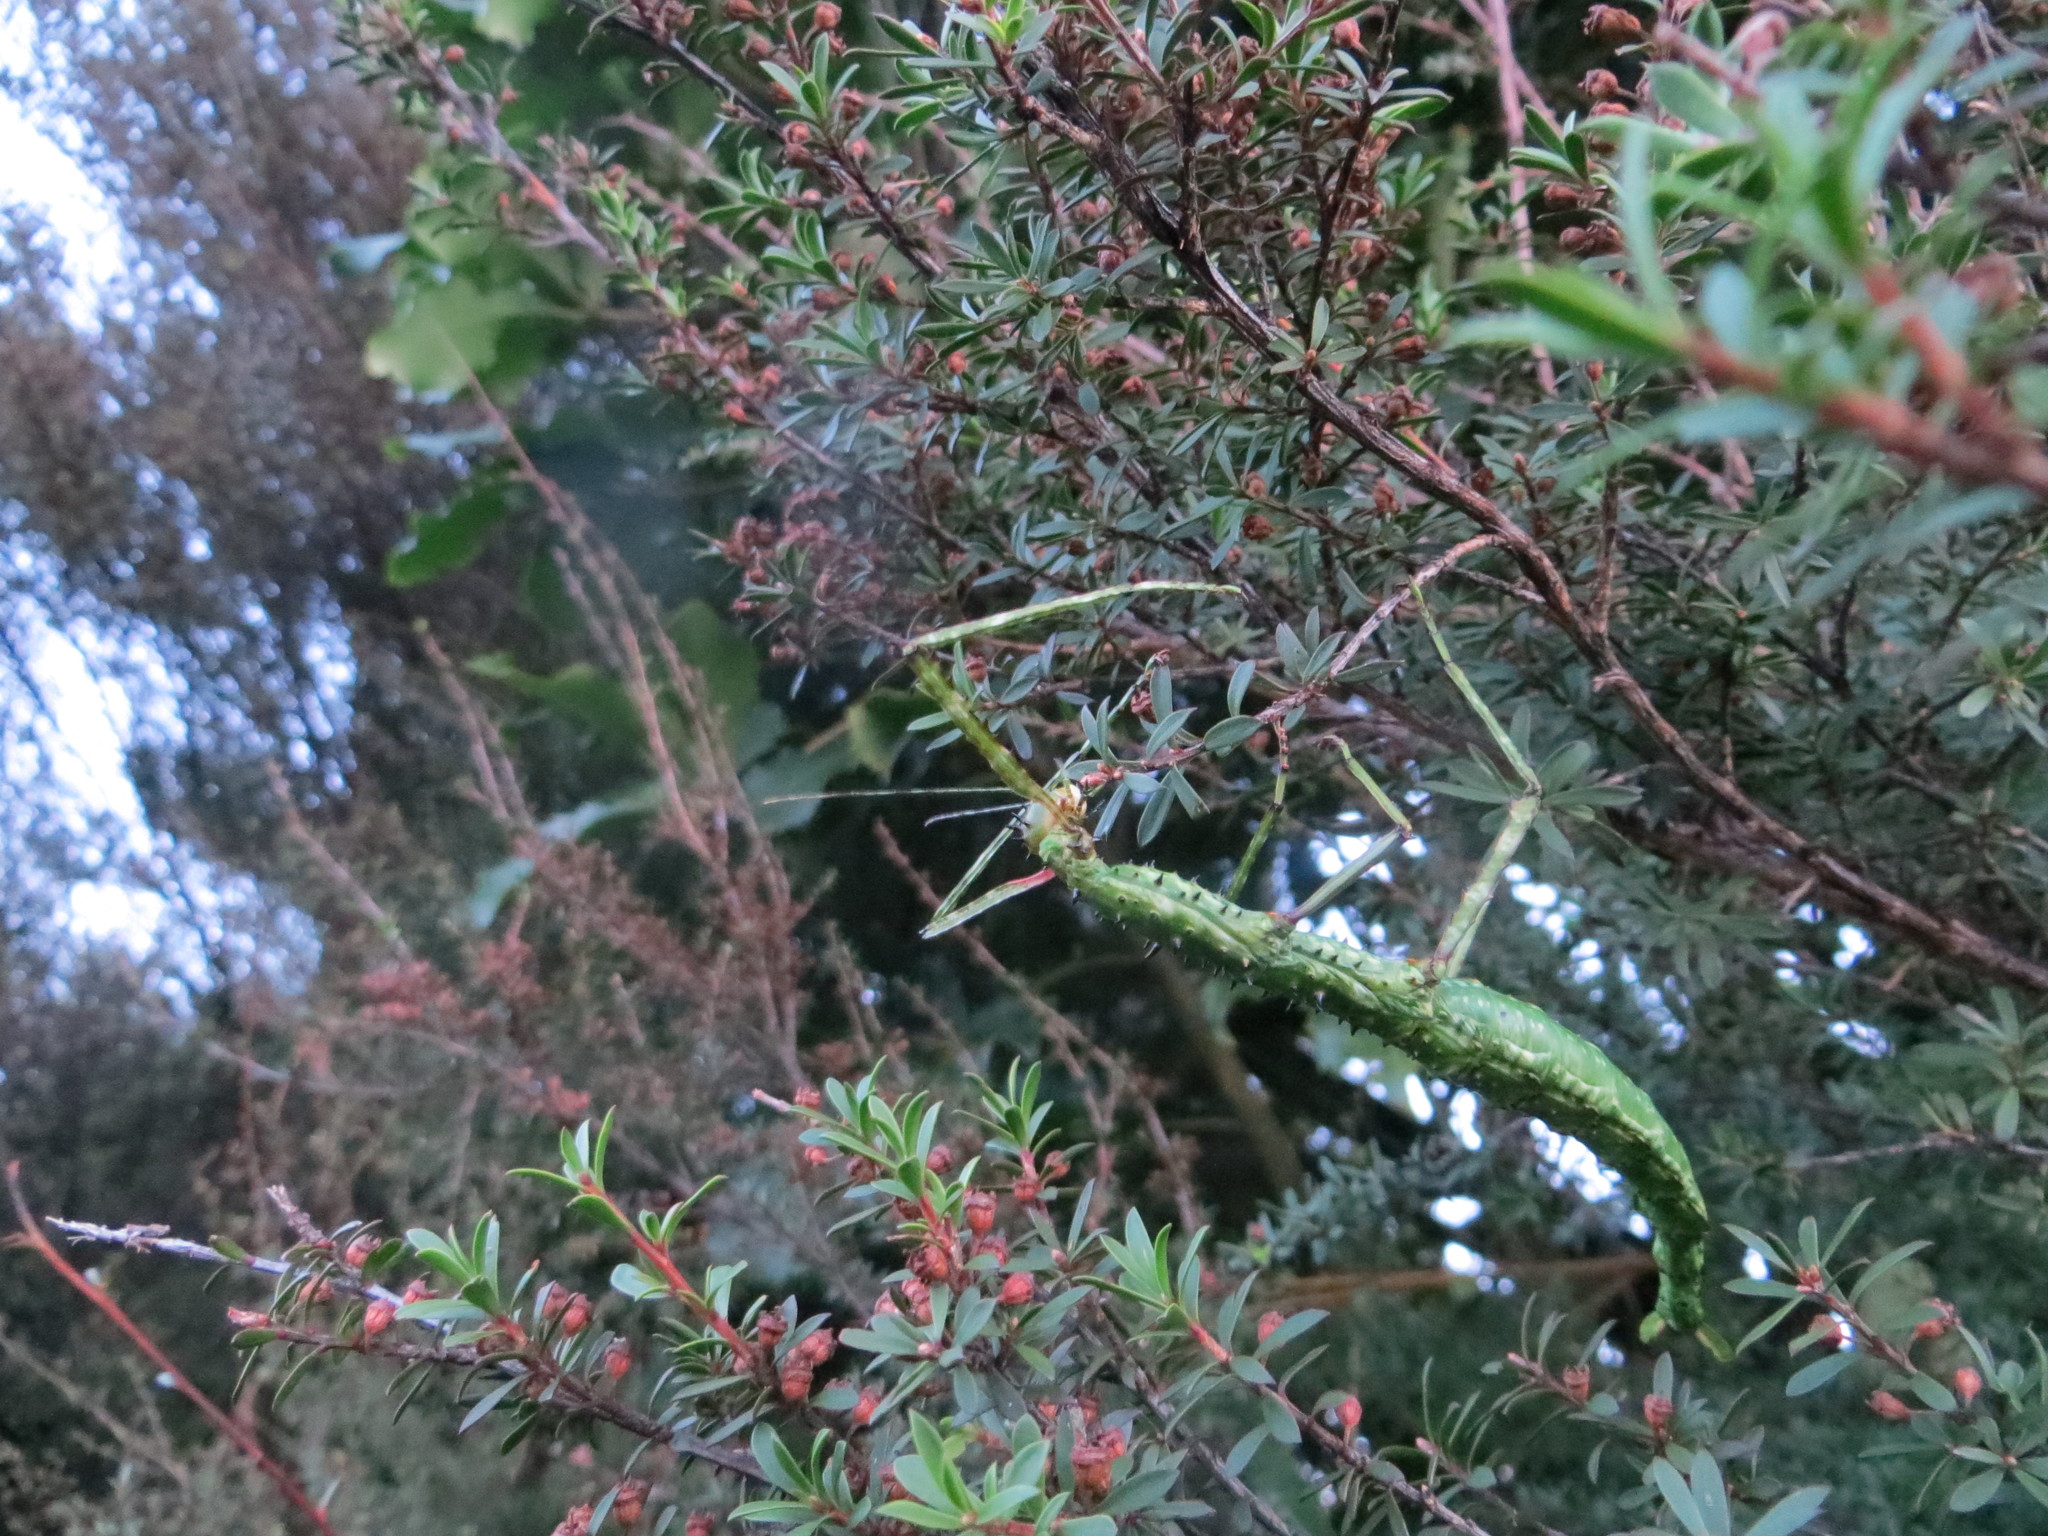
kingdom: Animalia
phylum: Arthropoda
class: Insecta
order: Phasmida
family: Phasmatidae
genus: Acanthoxyla
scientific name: Acanthoxyla prasina
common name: Black-spined stick insect
